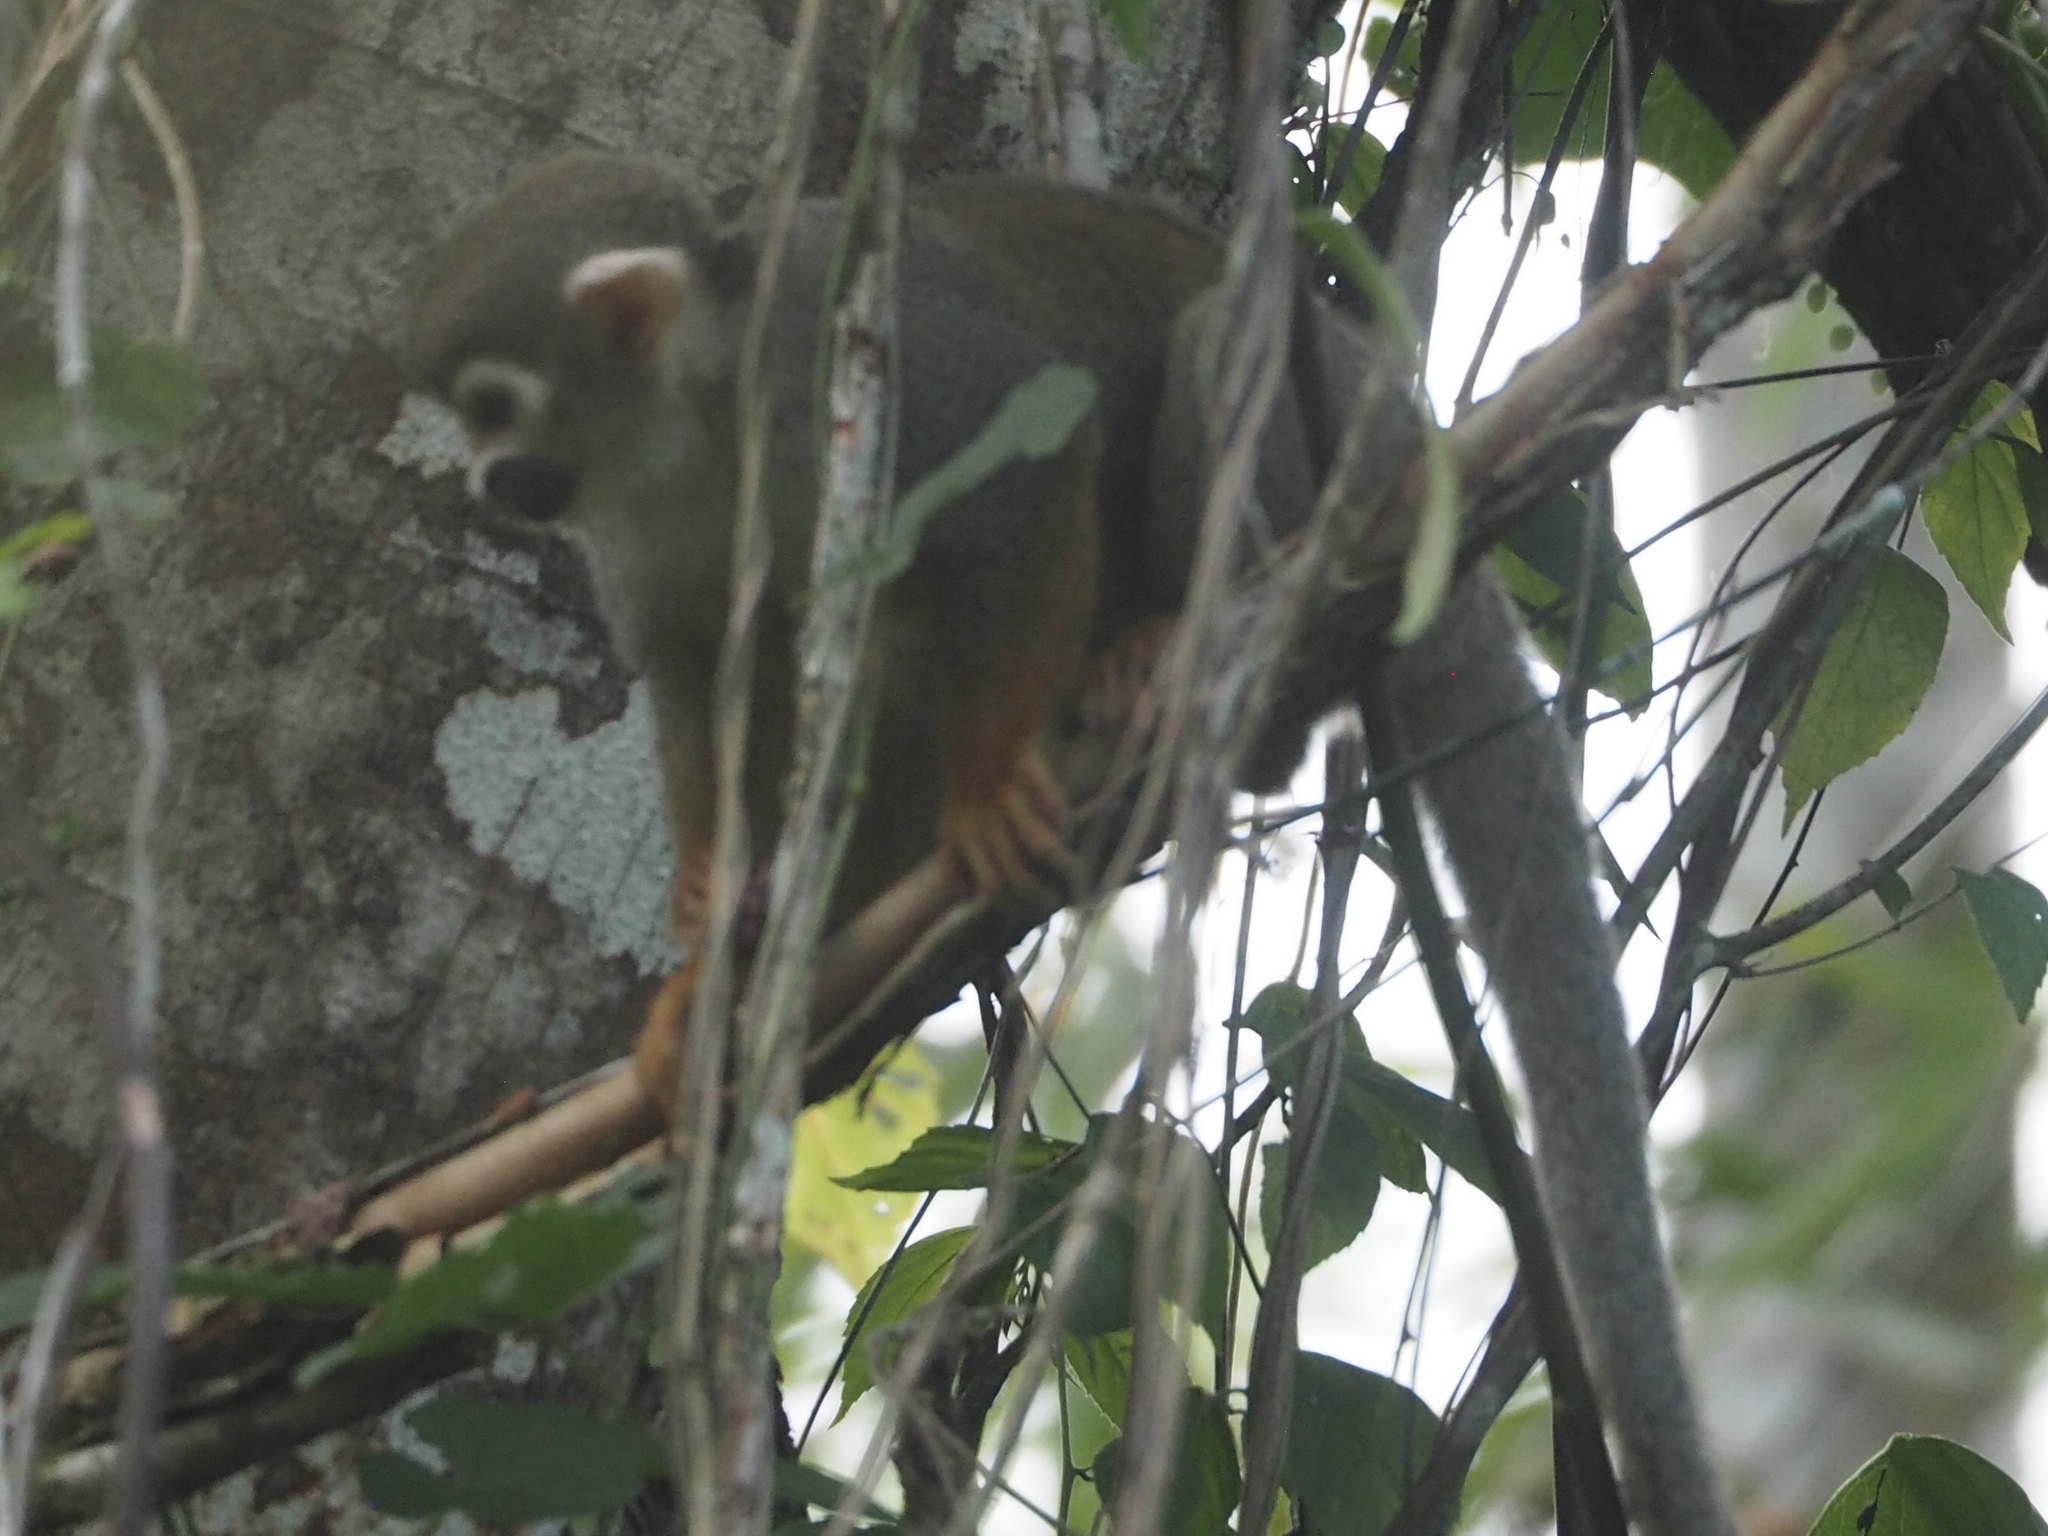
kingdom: Animalia
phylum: Chordata
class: Mammalia
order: Primates
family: Cebidae
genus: Saimiri
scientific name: Saimiri sciureus
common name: Common squirrel monkey
